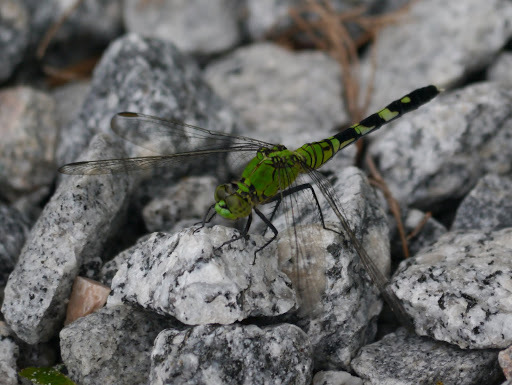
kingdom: Animalia
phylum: Arthropoda
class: Insecta
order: Odonata
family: Libellulidae
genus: Erythemis
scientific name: Erythemis simplicicollis
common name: Eastern pondhawk
